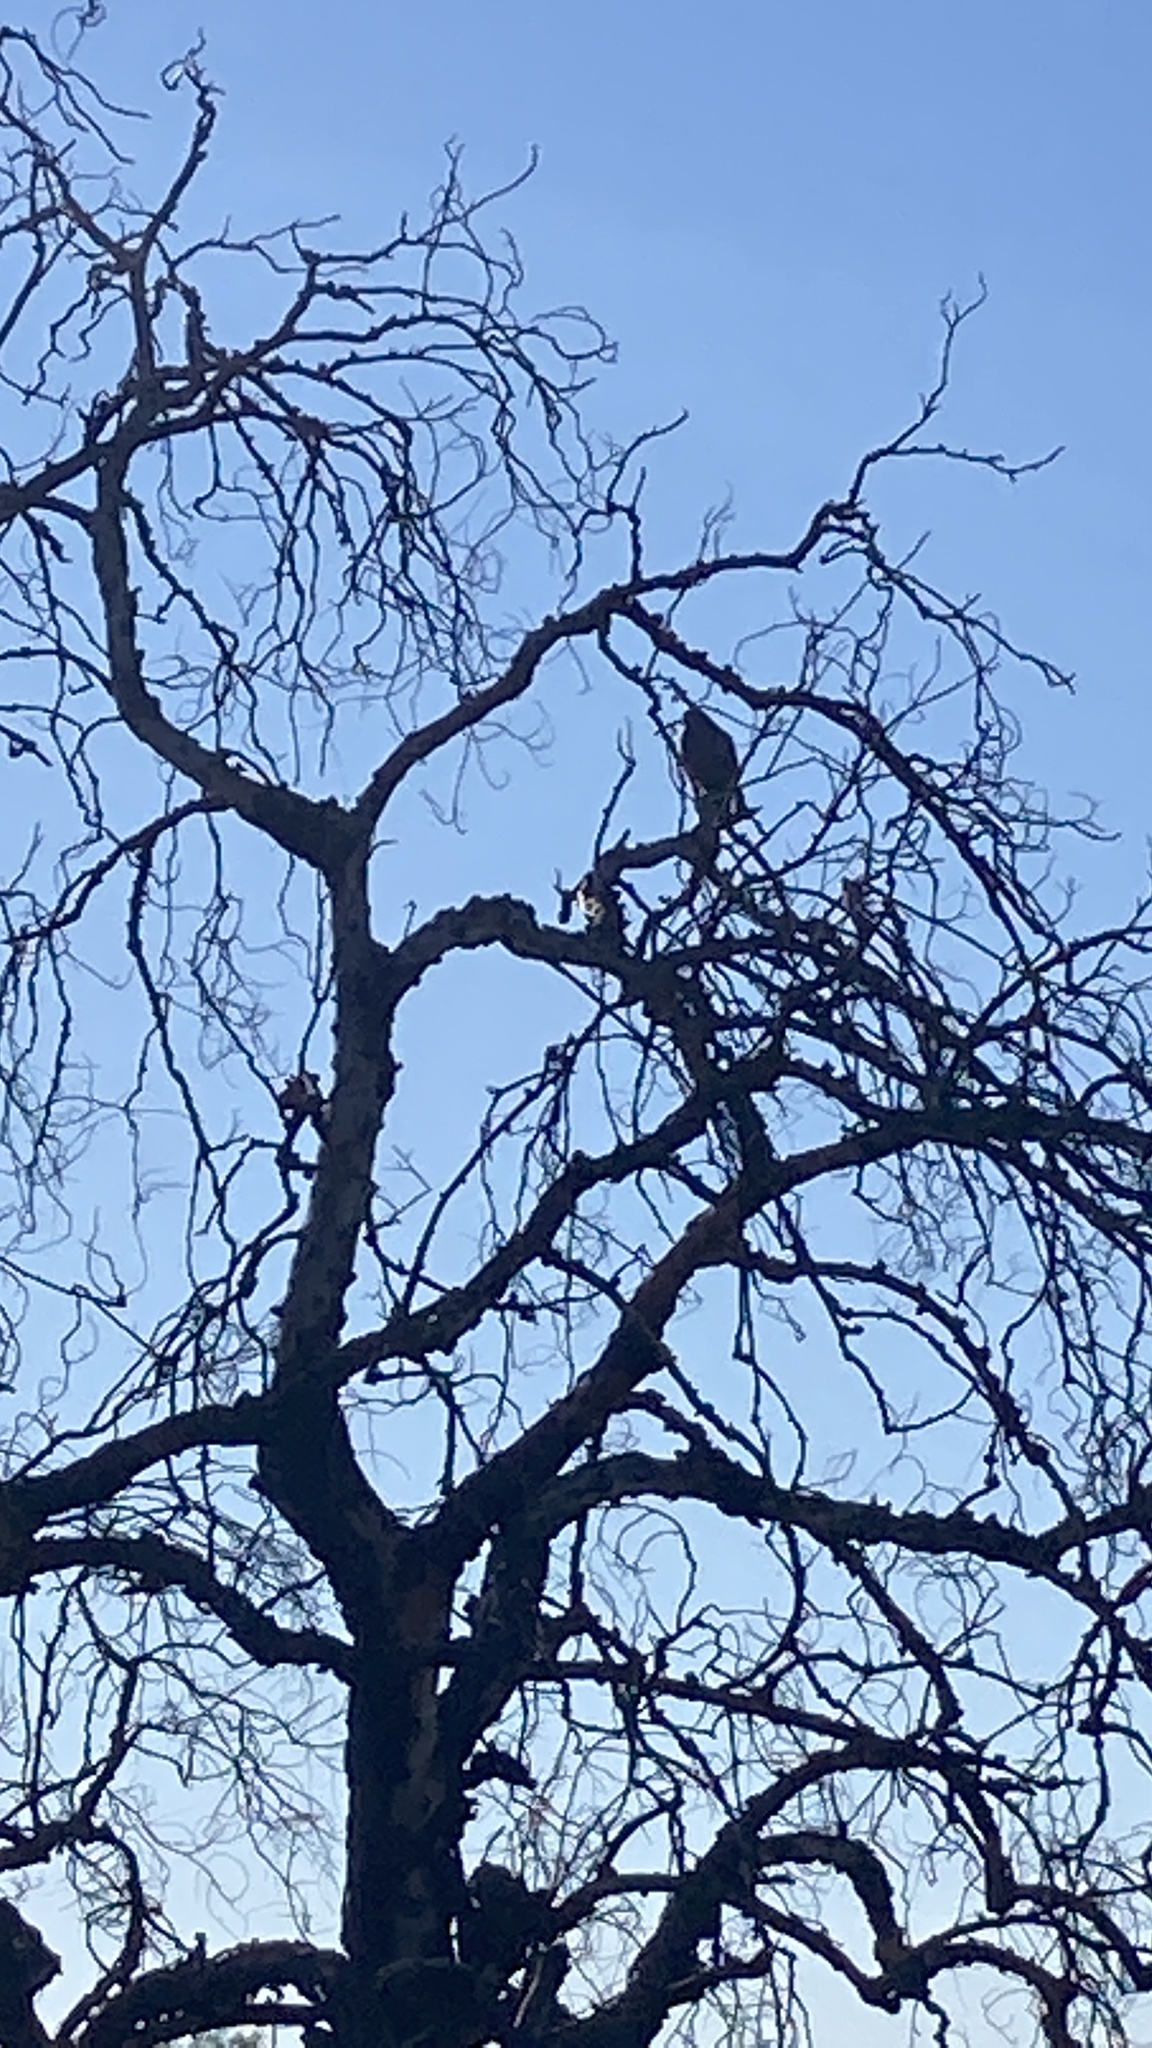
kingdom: Animalia
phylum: Chordata
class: Aves
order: Accipitriformes
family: Accipitridae
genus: Buteo
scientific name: Buteo jamaicensis
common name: Red-tailed hawk
